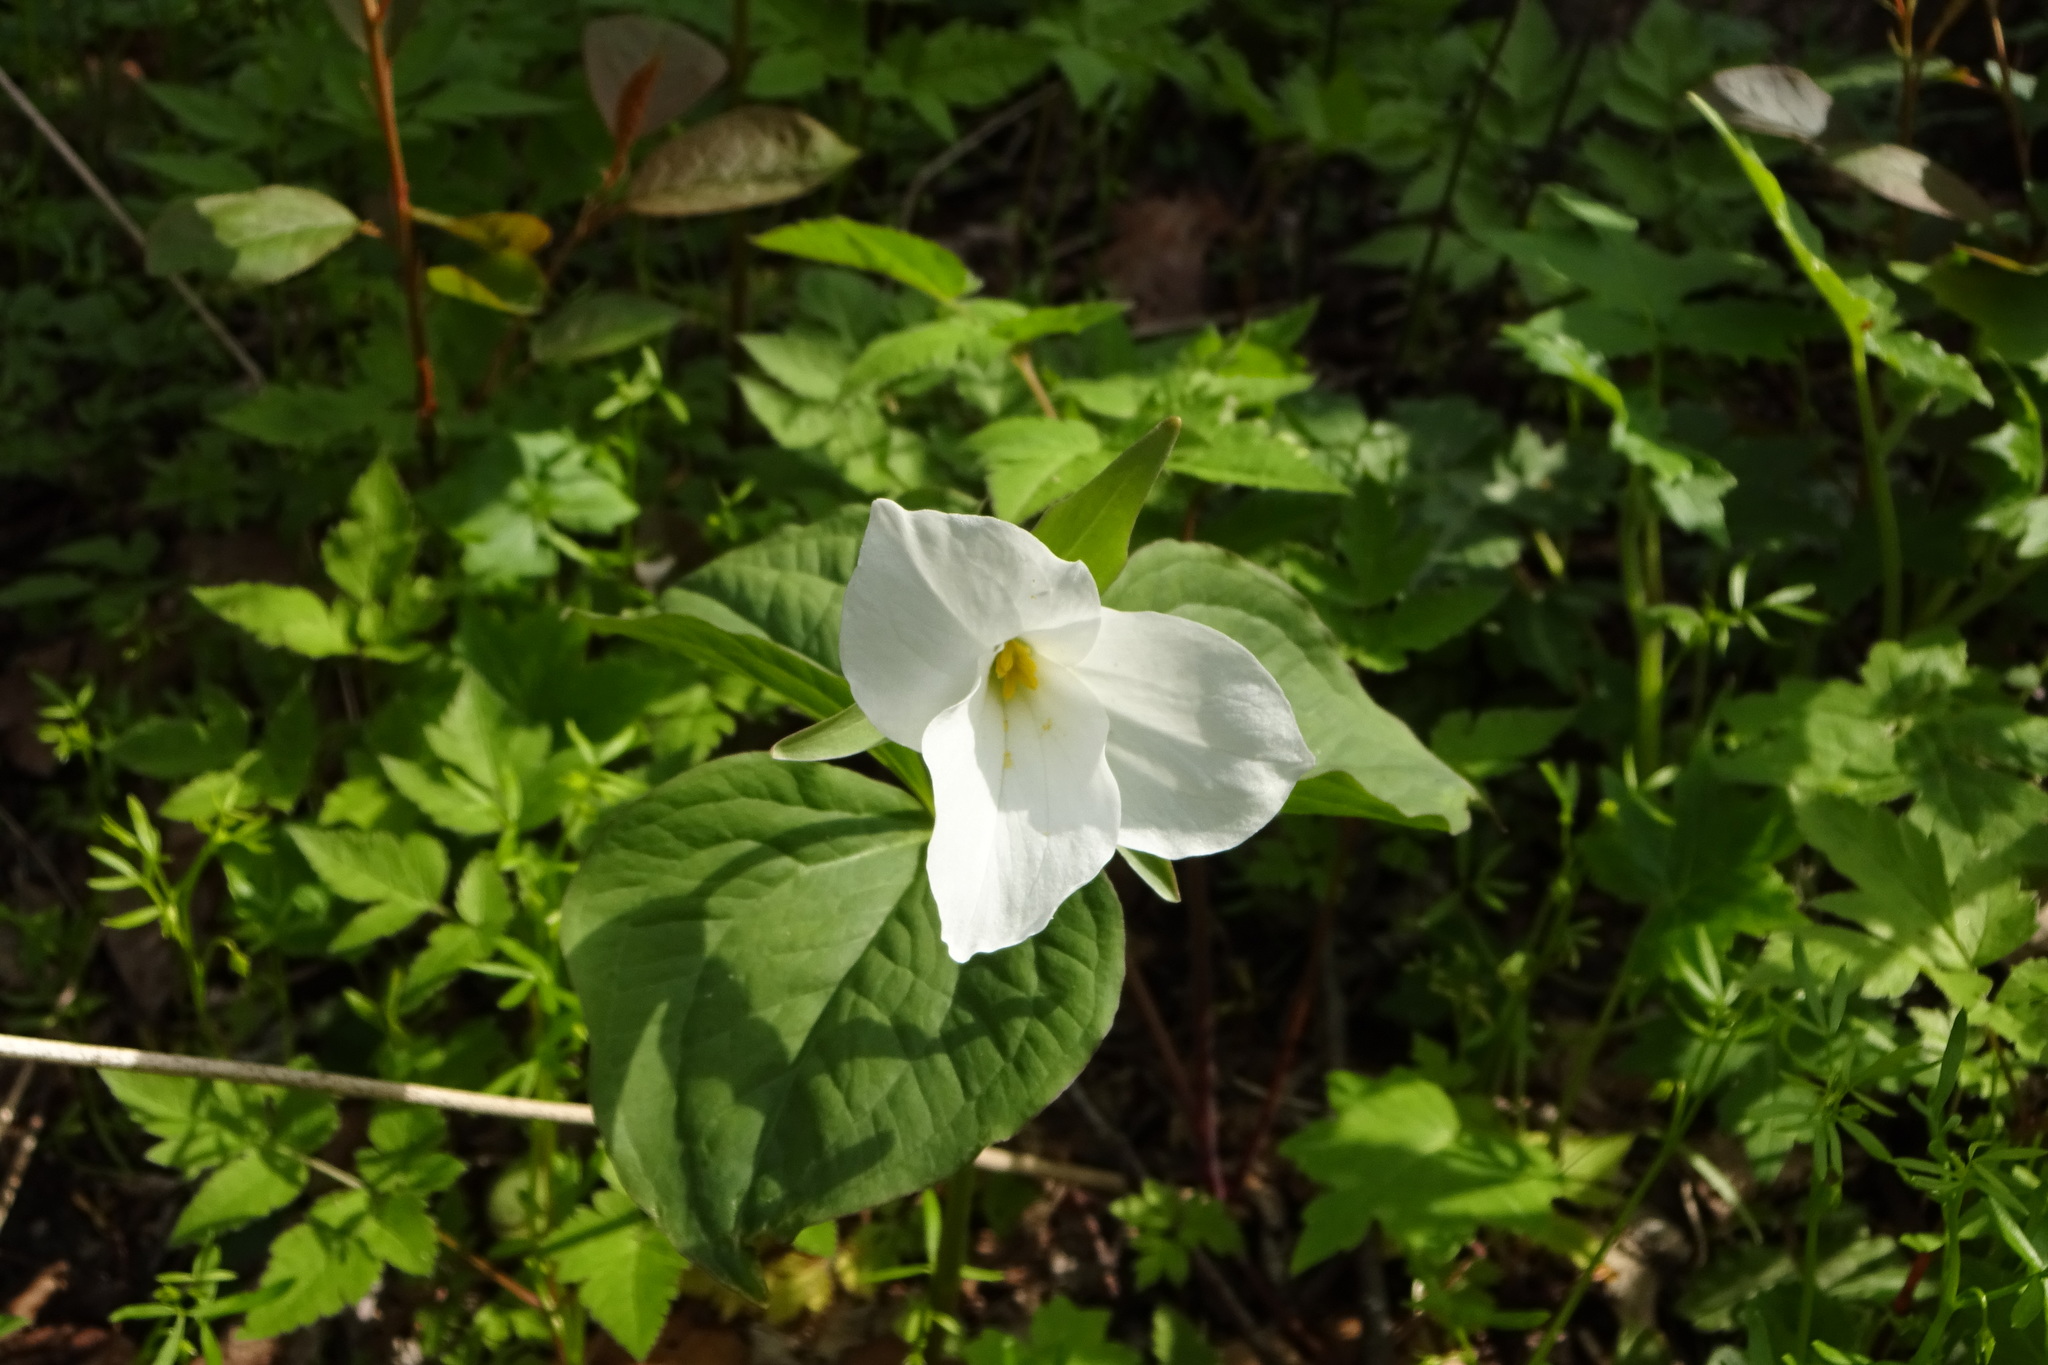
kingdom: Plantae
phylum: Tracheophyta
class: Liliopsida
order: Liliales
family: Melanthiaceae
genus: Trillium
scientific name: Trillium grandiflorum
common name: Great white trillium
